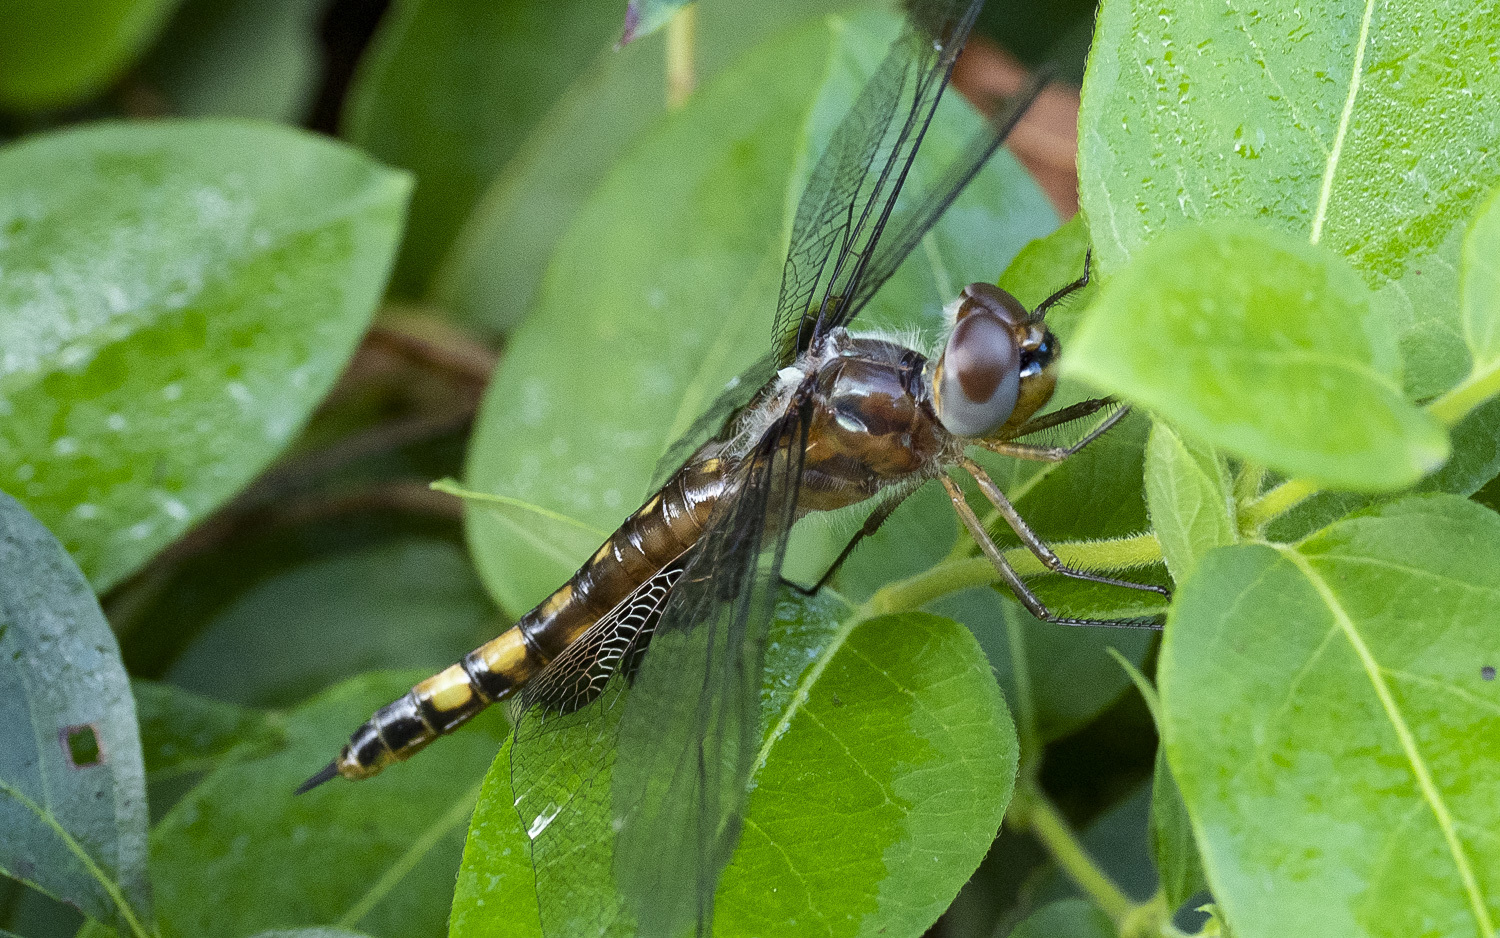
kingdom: Animalia
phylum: Arthropoda
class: Insecta
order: Odonata
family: Libellulidae
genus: Tramea
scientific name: Tramea lacerata
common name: Black saddlebags
